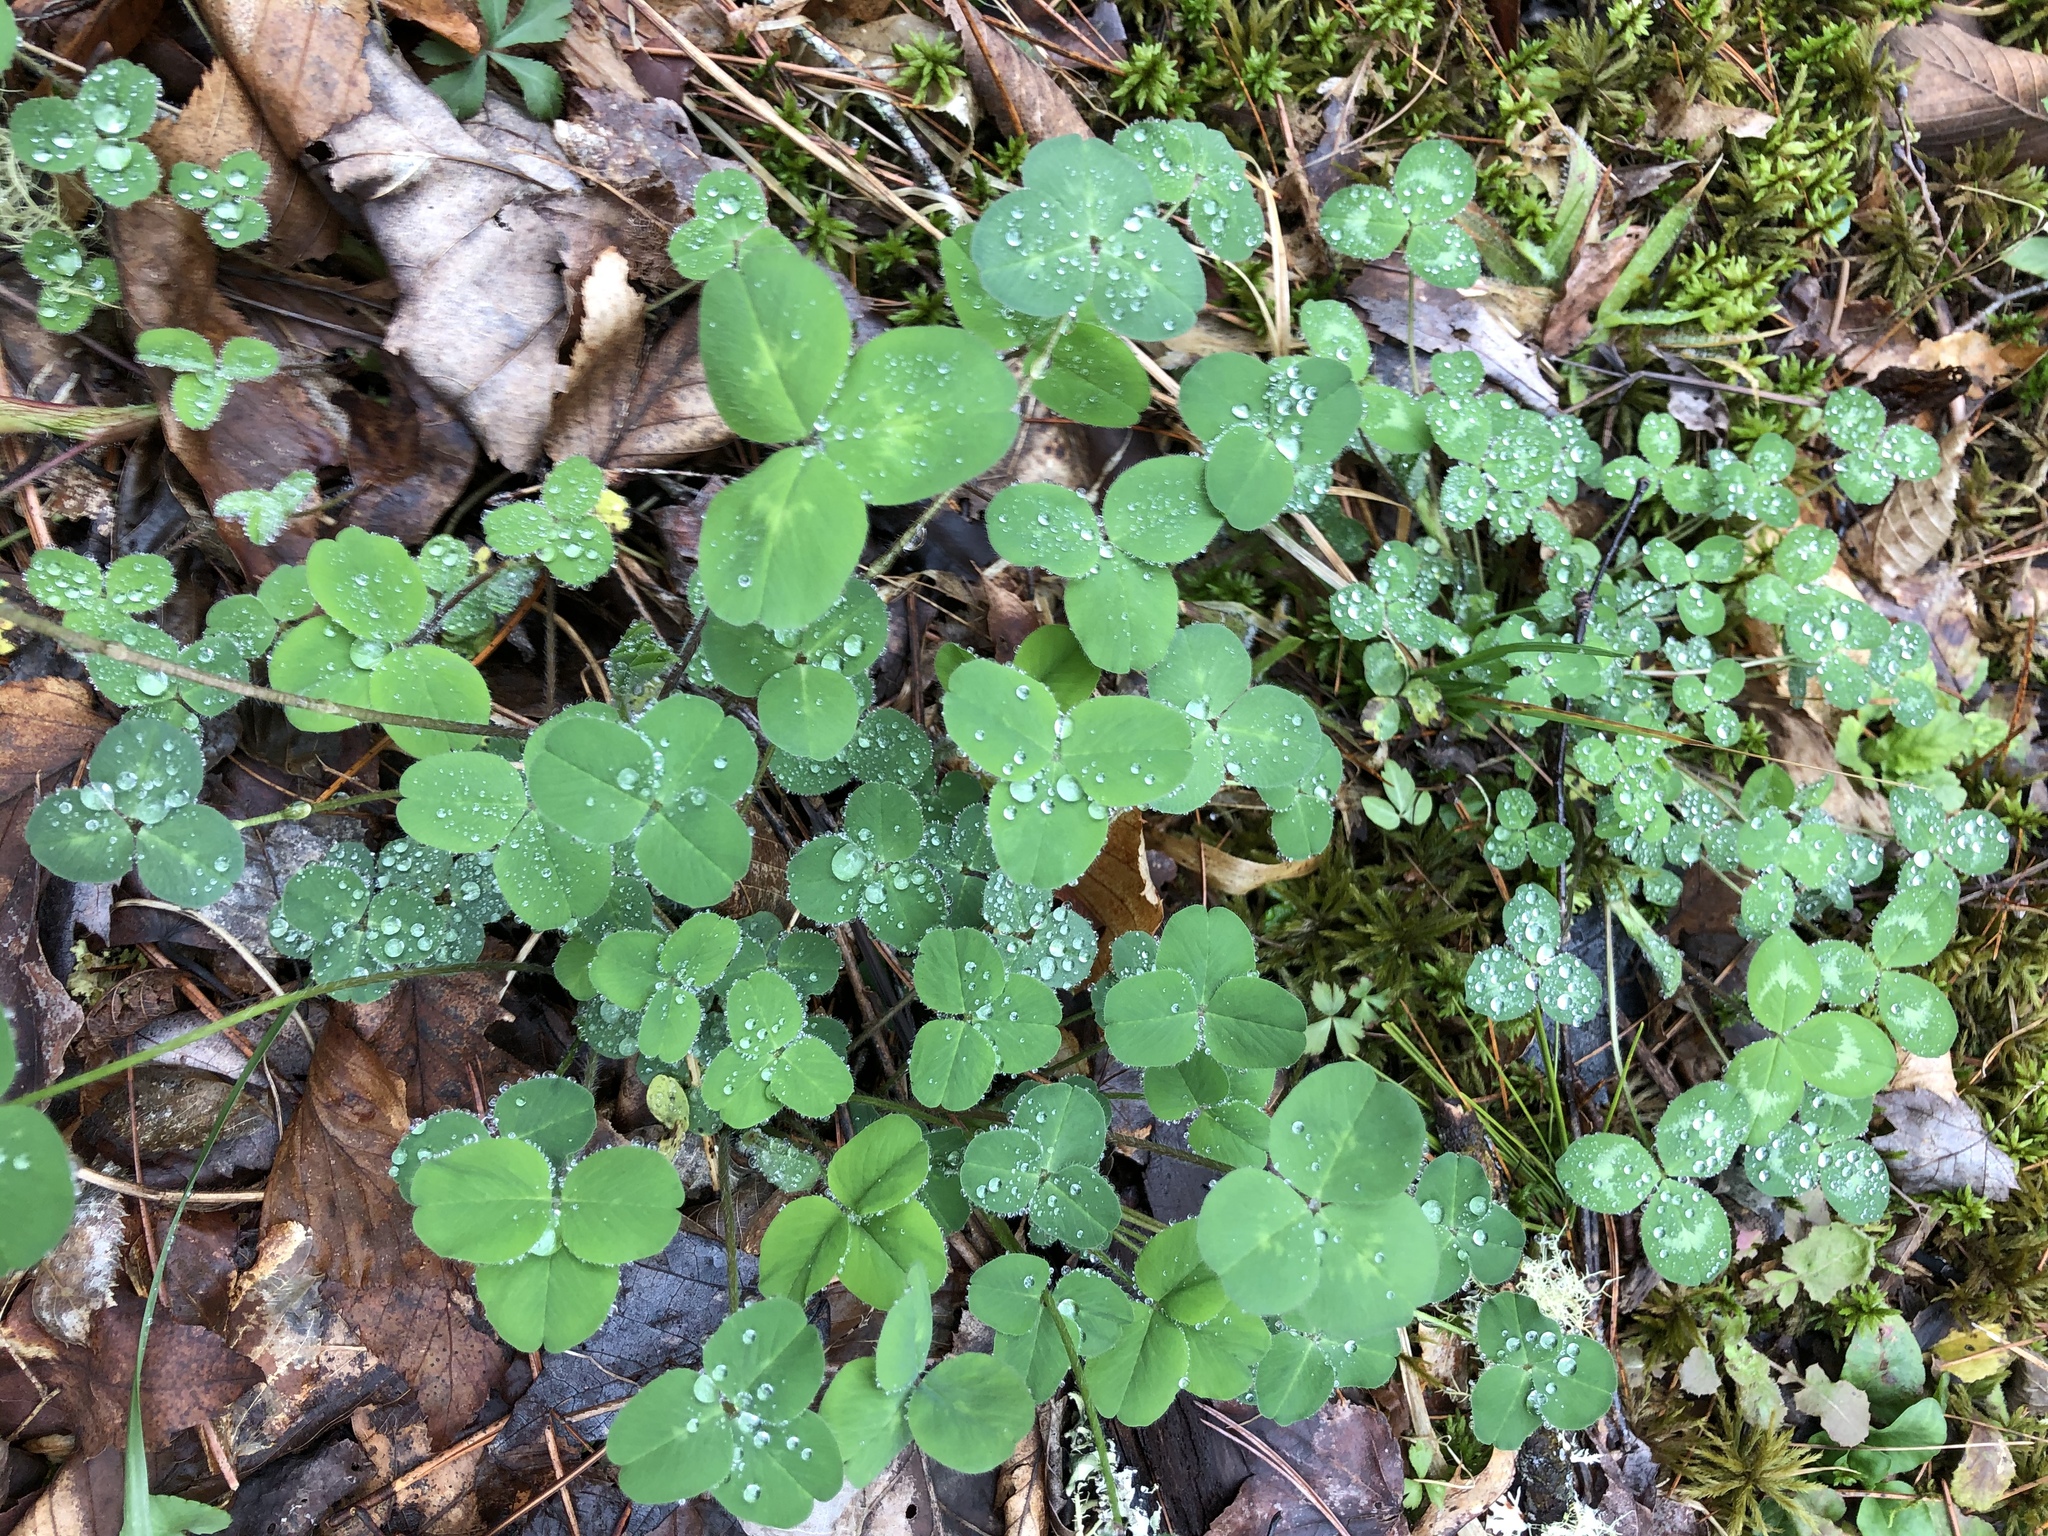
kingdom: Plantae
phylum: Tracheophyta
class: Magnoliopsida
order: Fabales
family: Fabaceae
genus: Trifolium
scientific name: Trifolium pratense
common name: Red clover
